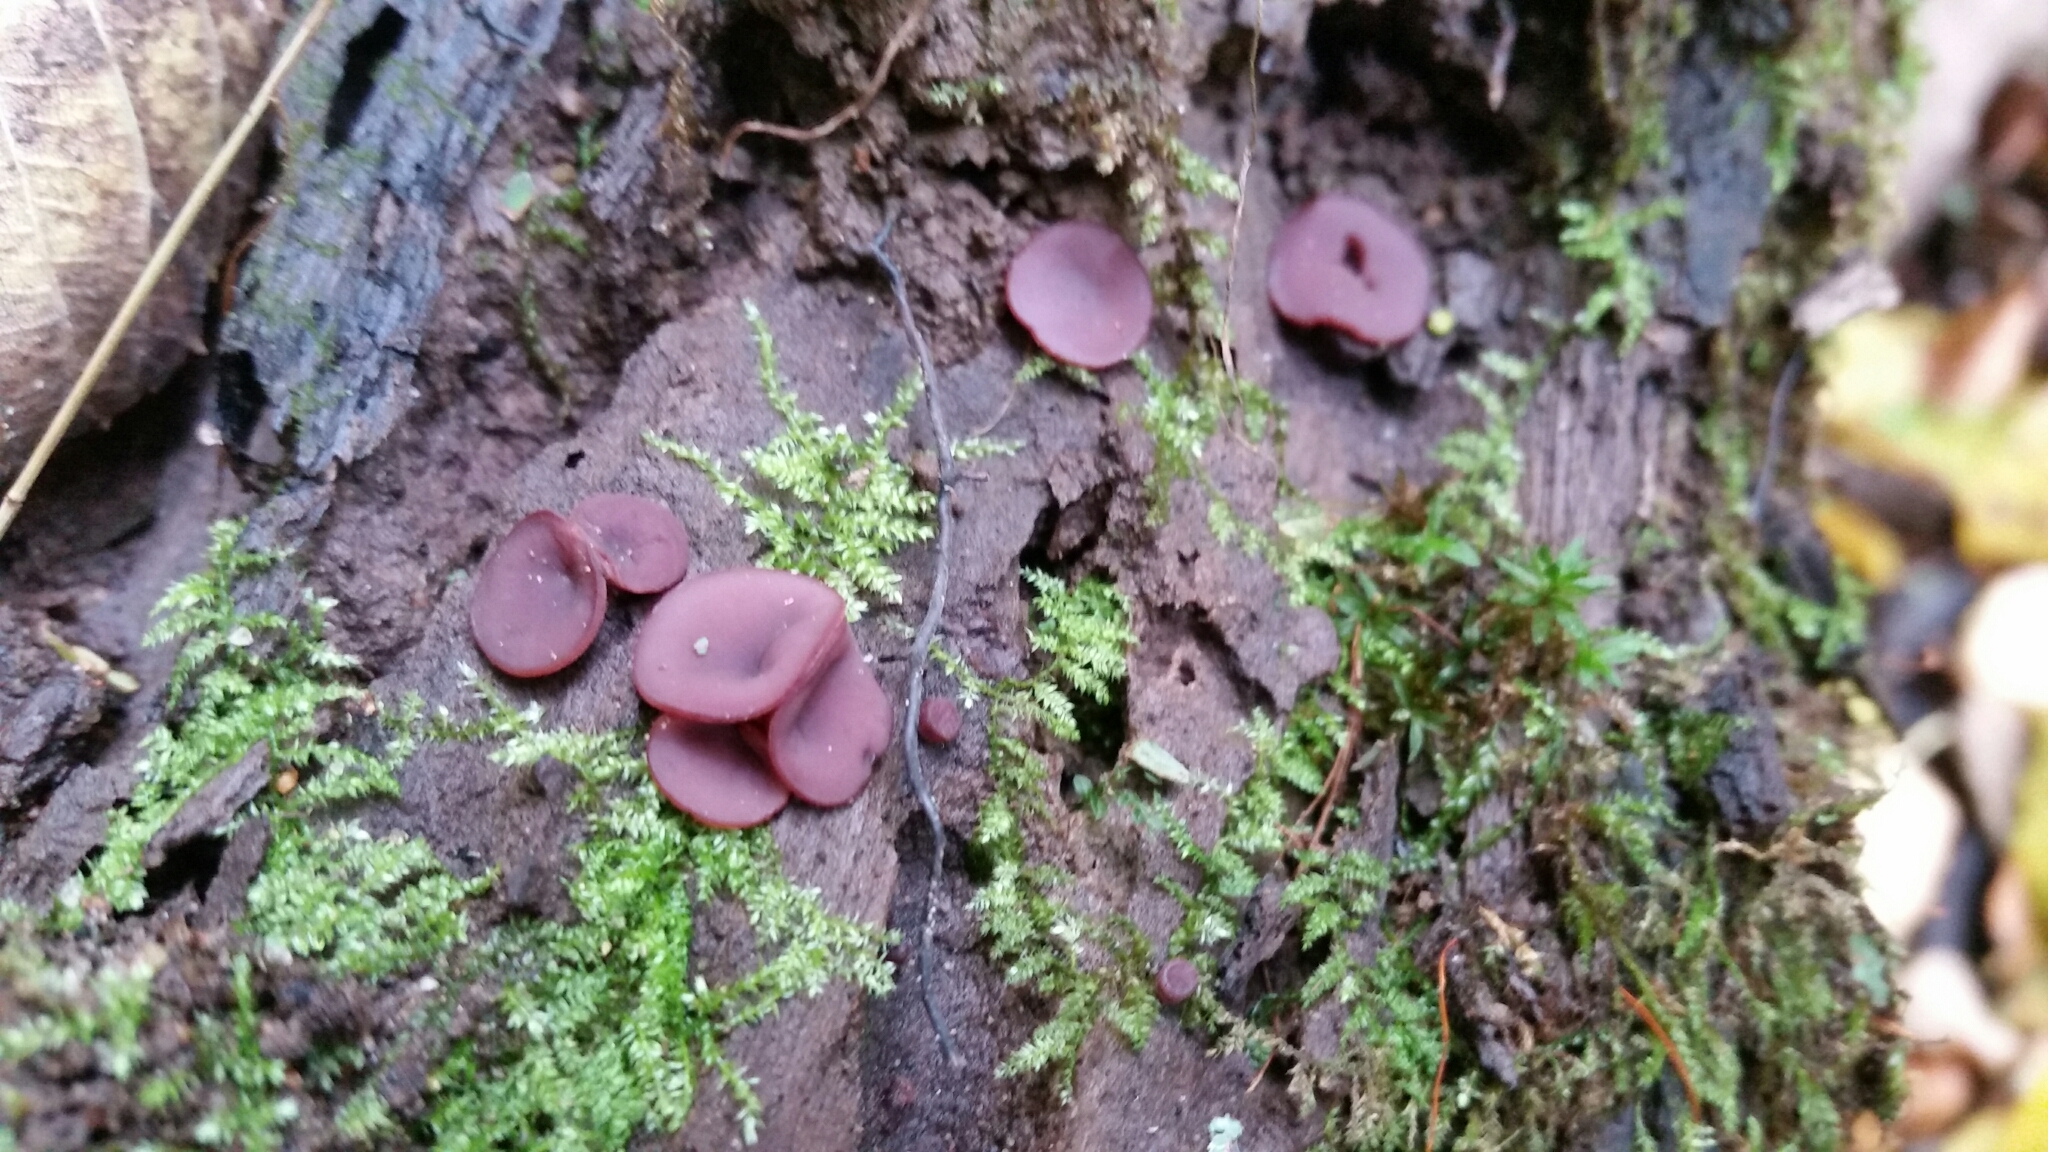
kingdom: Fungi
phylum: Ascomycota
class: Leotiomycetes
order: Helotiales
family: Gelatinodiscaceae
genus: Ascocoryne
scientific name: Ascocoryne cylichnium
